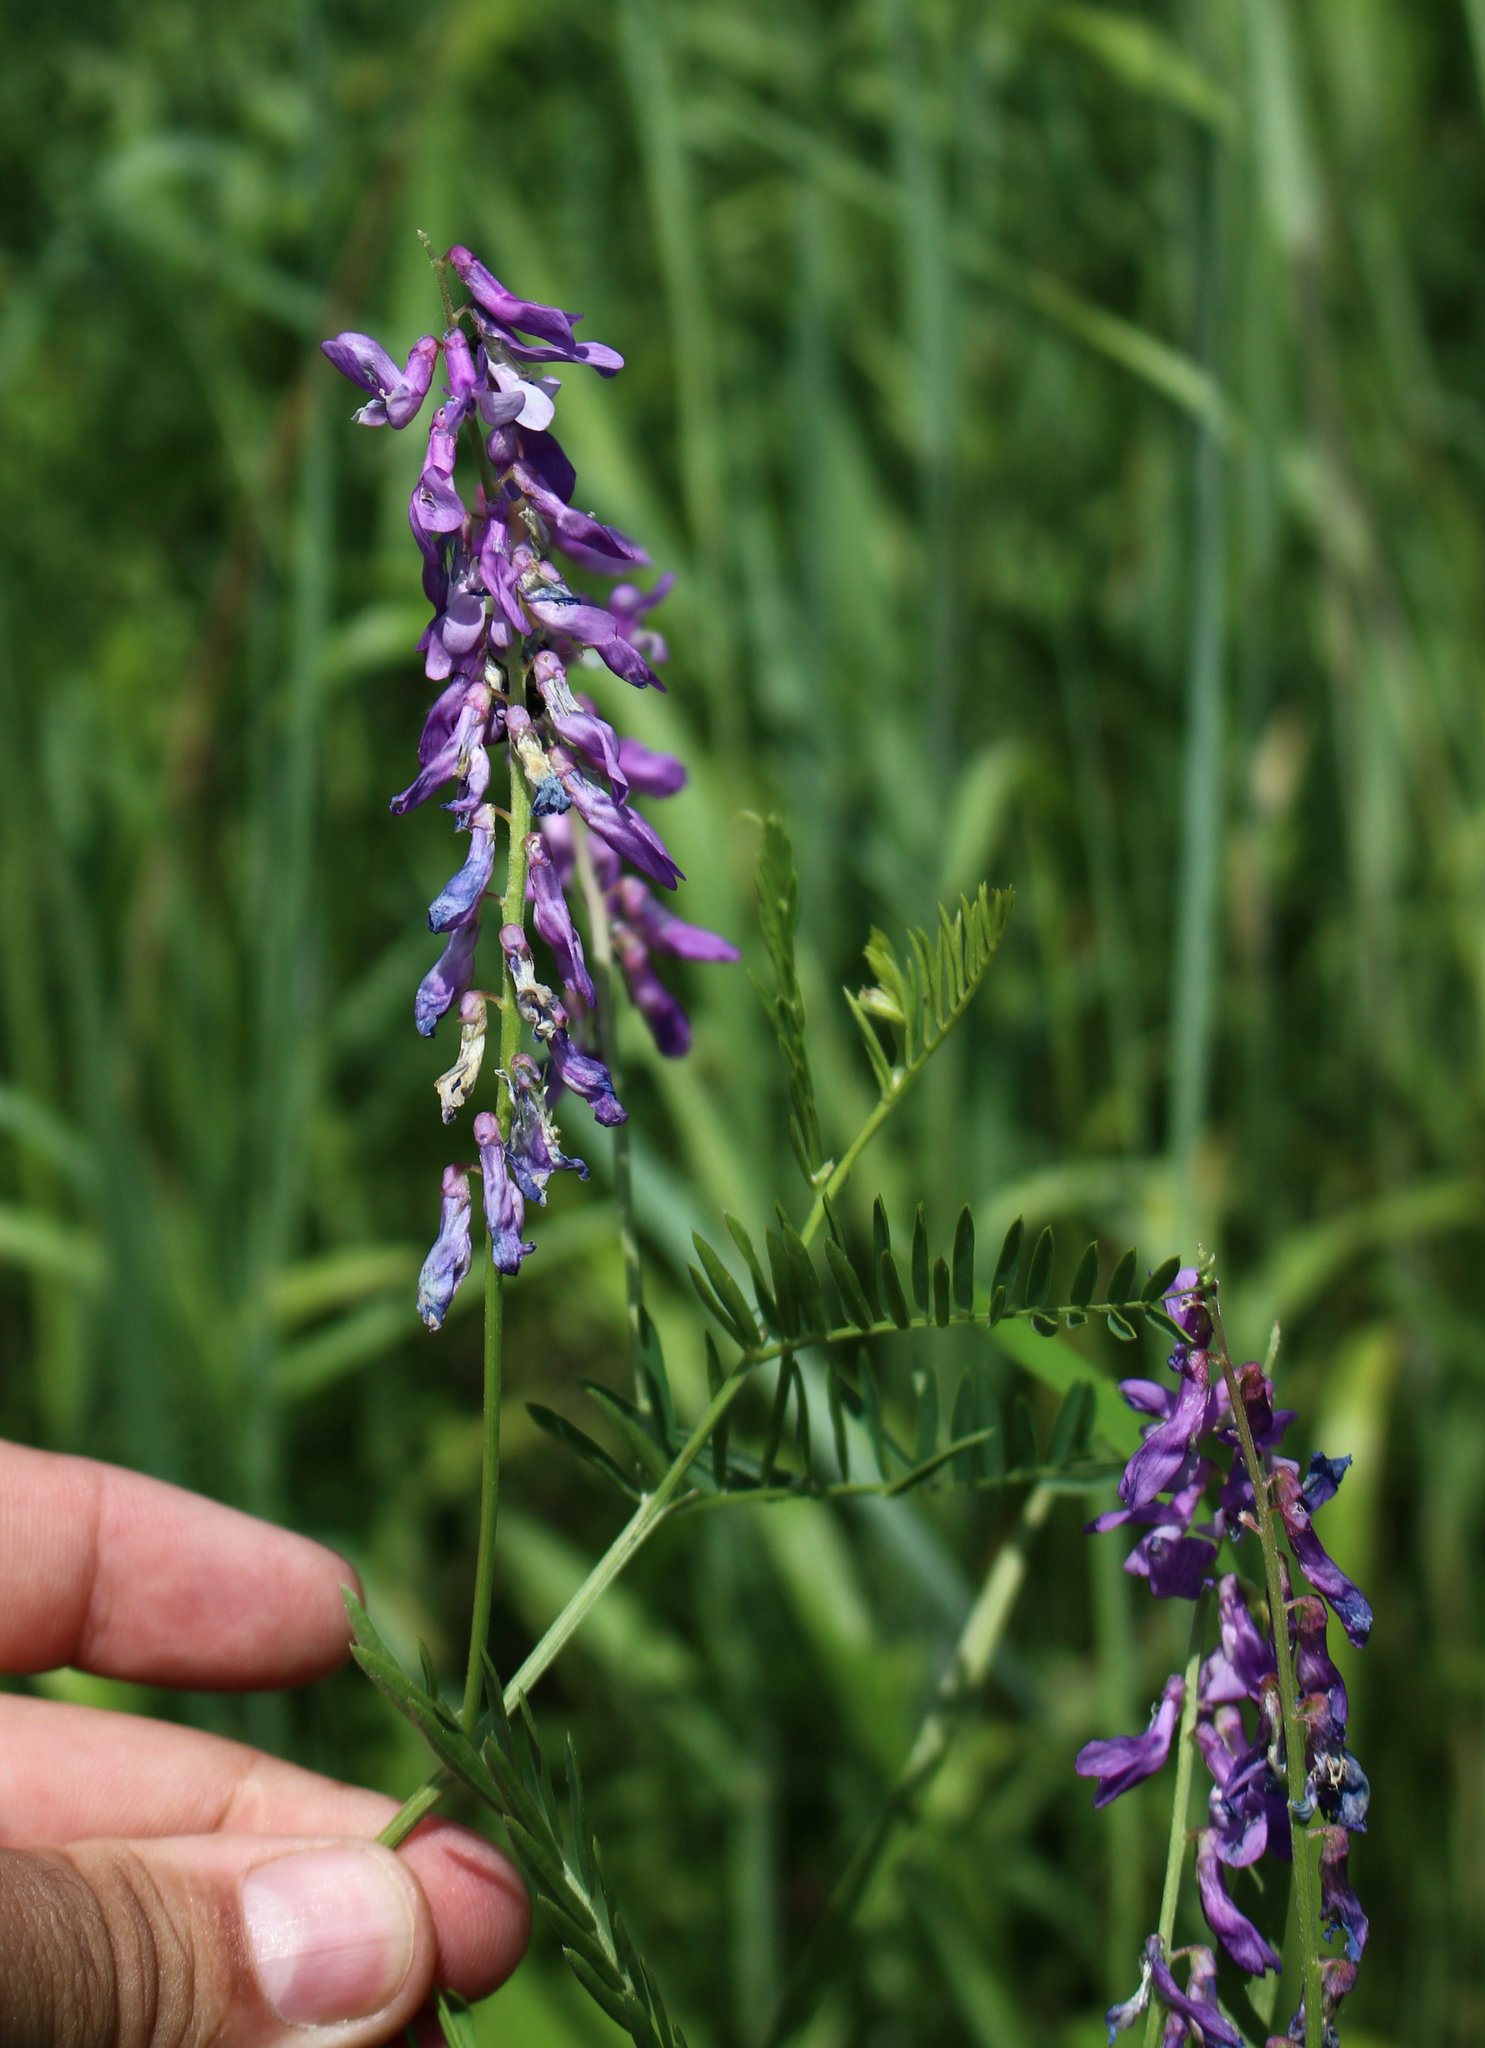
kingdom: Plantae
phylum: Tracheophyta
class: Magnoliopsida
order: Fabales
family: Fabaceae
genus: Vicia
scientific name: Vicia tenuifolia
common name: Fine-leaved vetch
